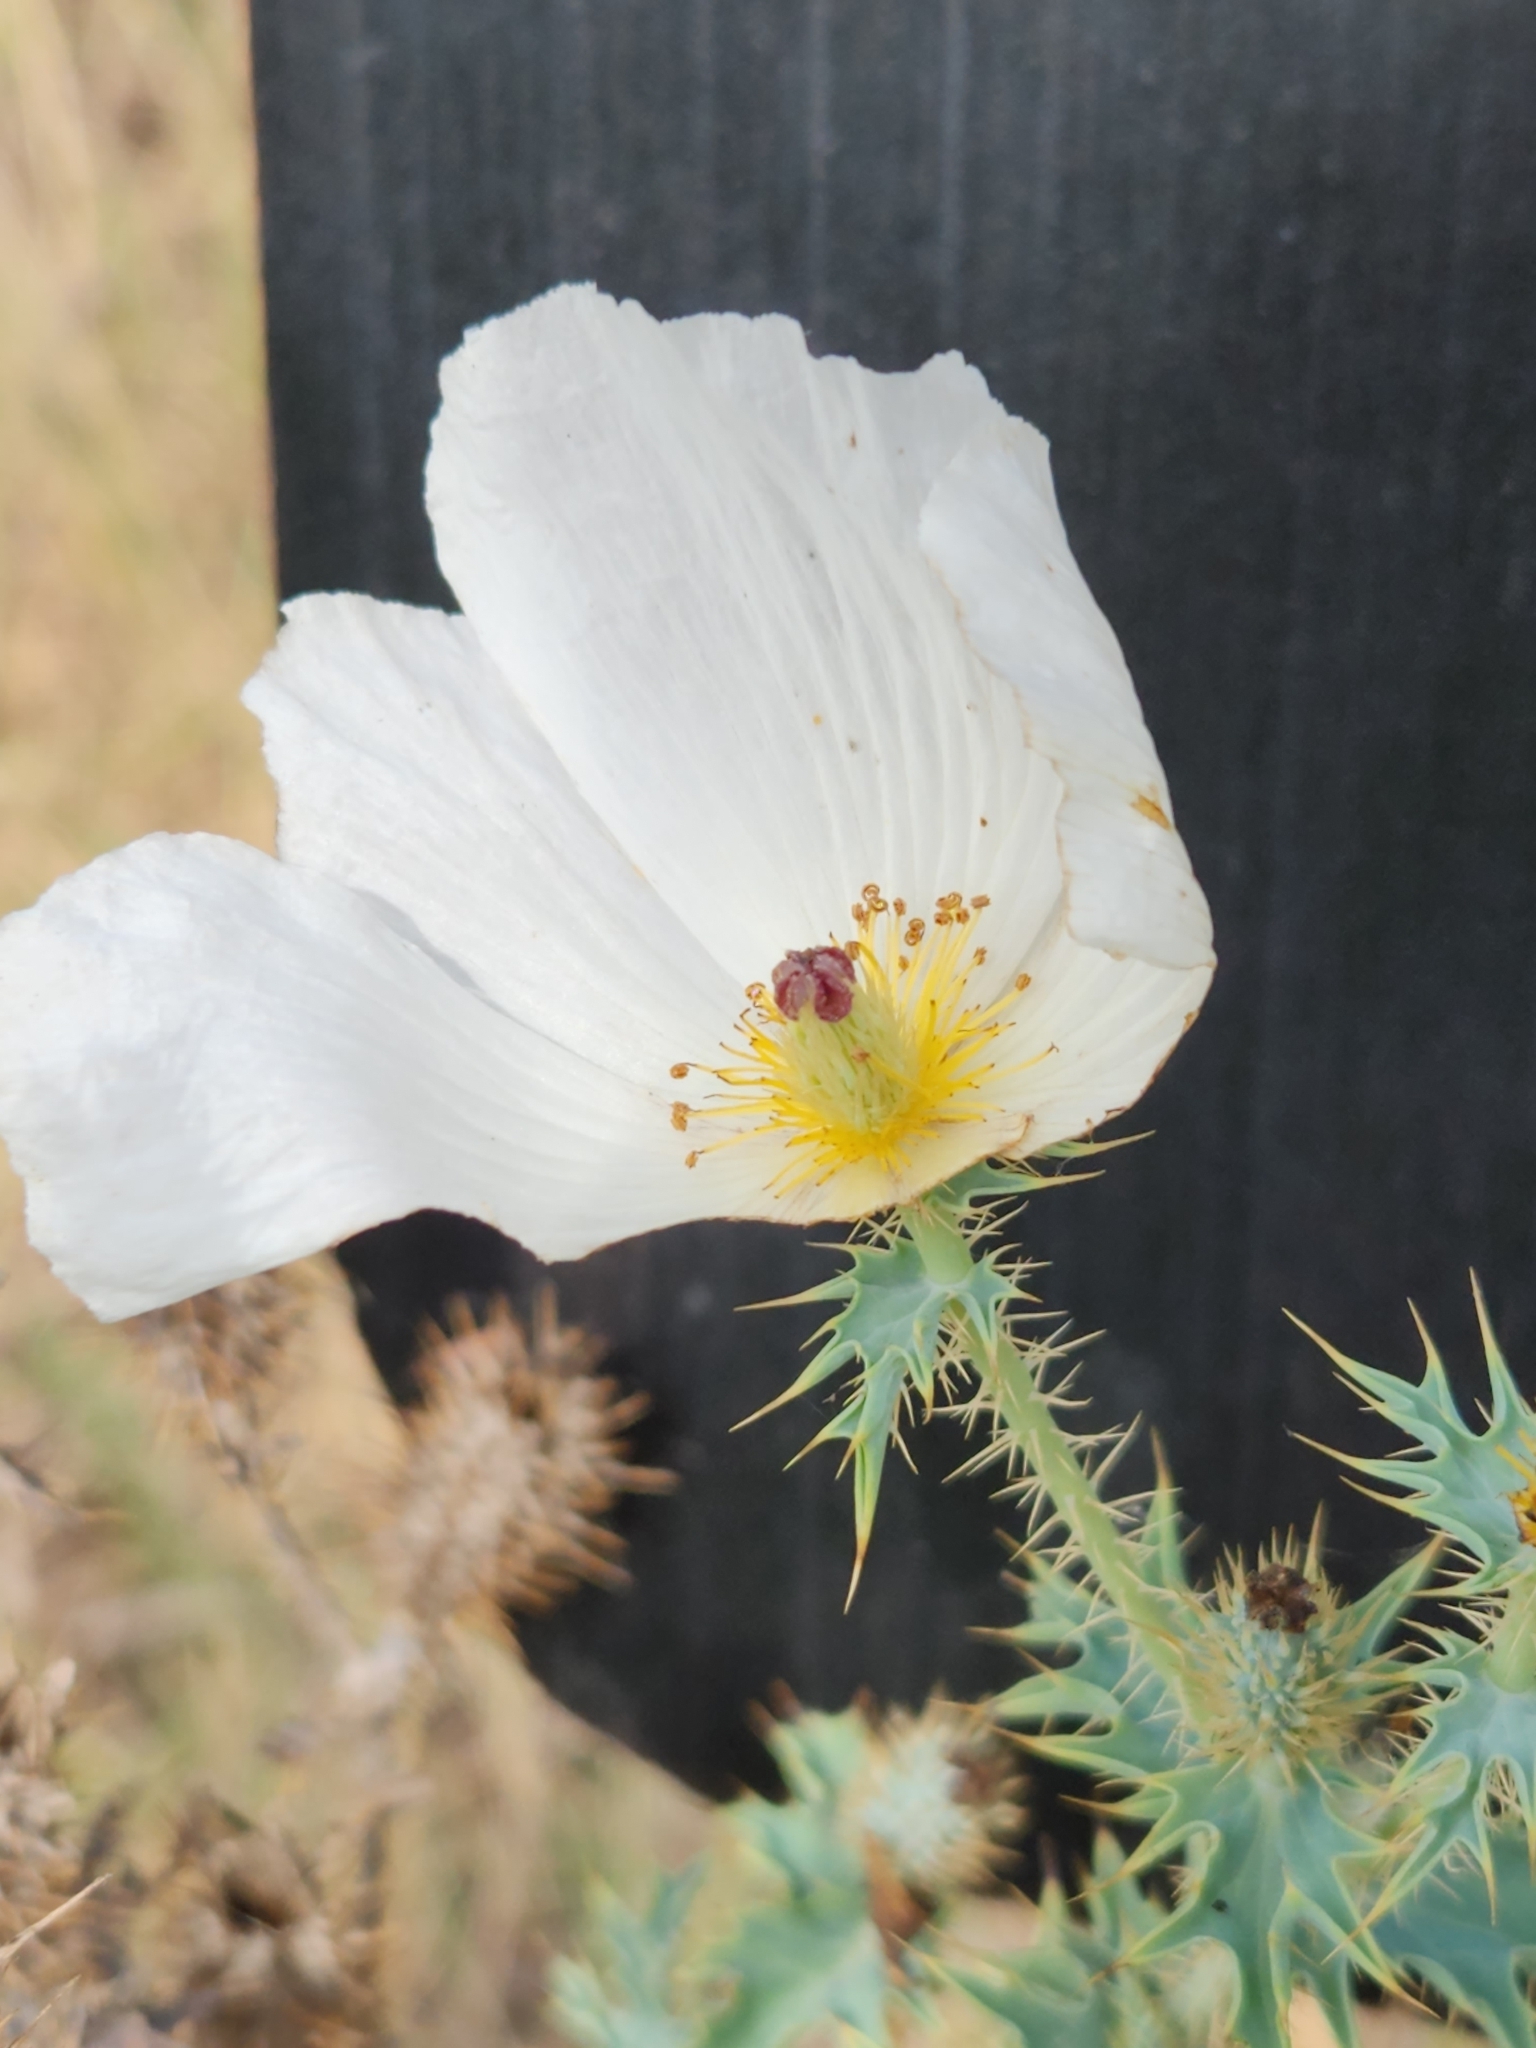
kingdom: Plantae
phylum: Tracheophyta
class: Magnoliopsida
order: Ranunculales
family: Papaveraceae
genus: Argemone
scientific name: Argemone albiflora
